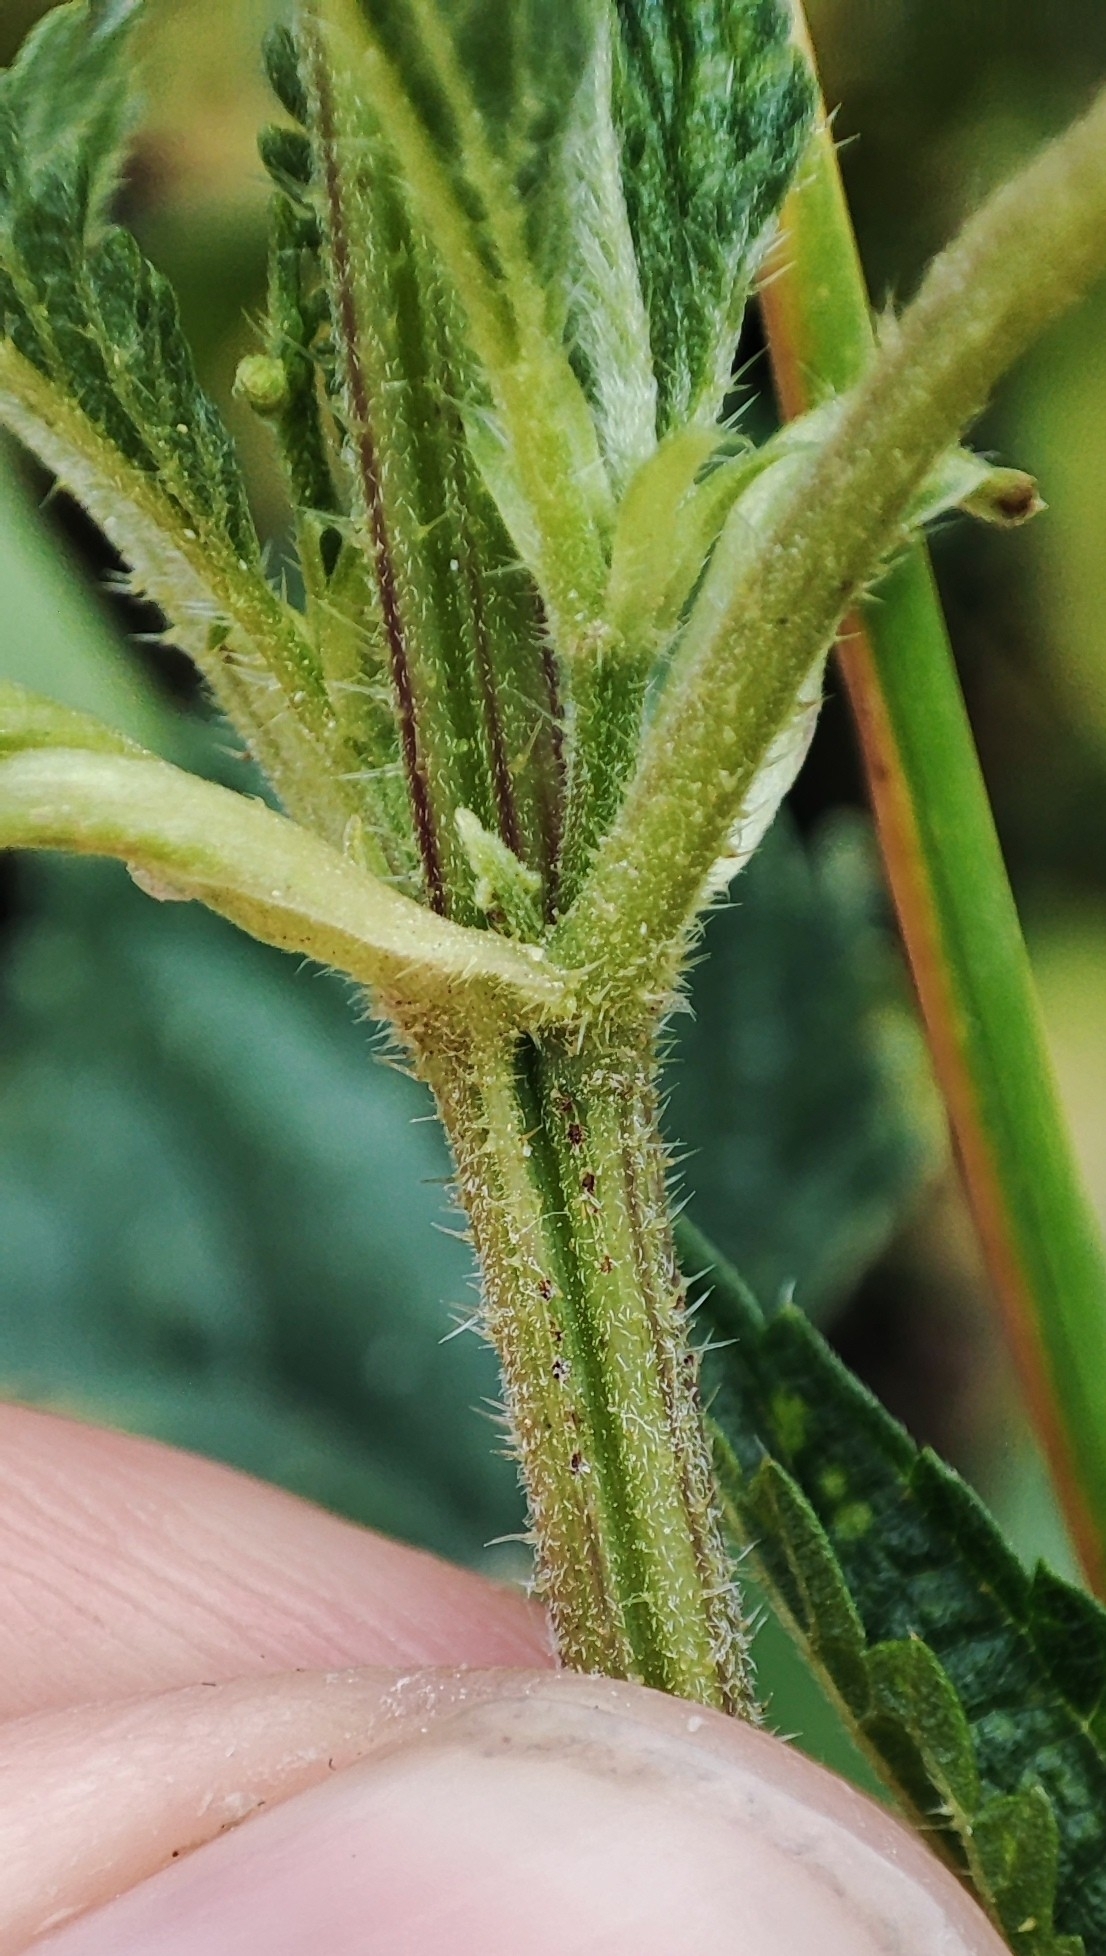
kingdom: Plantae
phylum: Tracheophyta
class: Magnoliopsida
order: Rosales
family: Urticaceae
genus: Urtica
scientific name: Urtica dioica
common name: Common nettle
